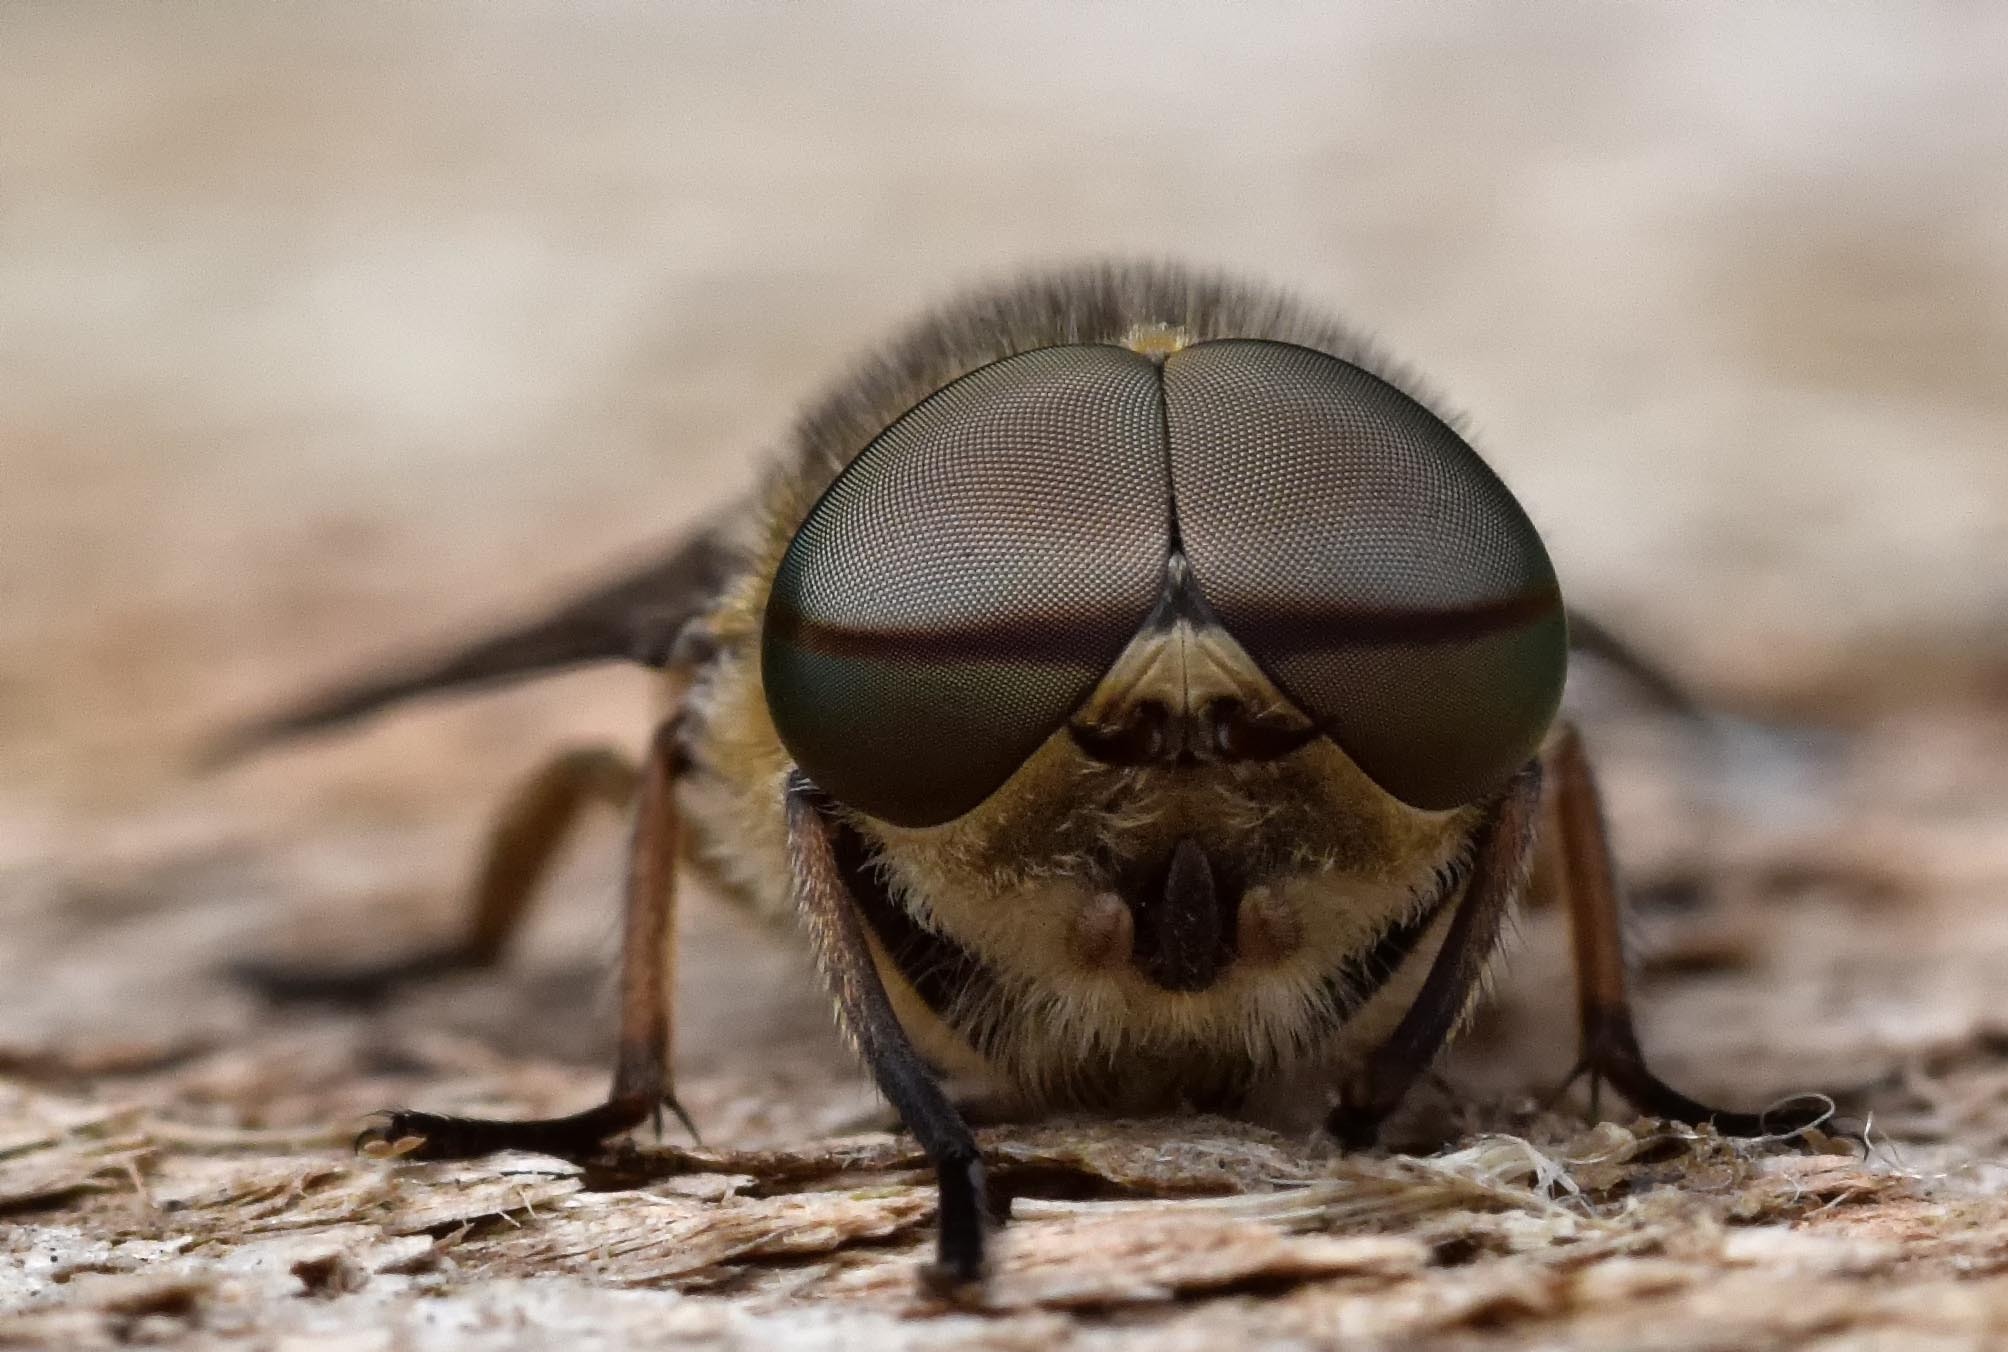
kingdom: Animalia
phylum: Arthropoda
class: Insecta
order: Diptera
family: Tabanidae
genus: Tabanus
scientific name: Tabanus bromius
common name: Band-eyed brown horsefly
